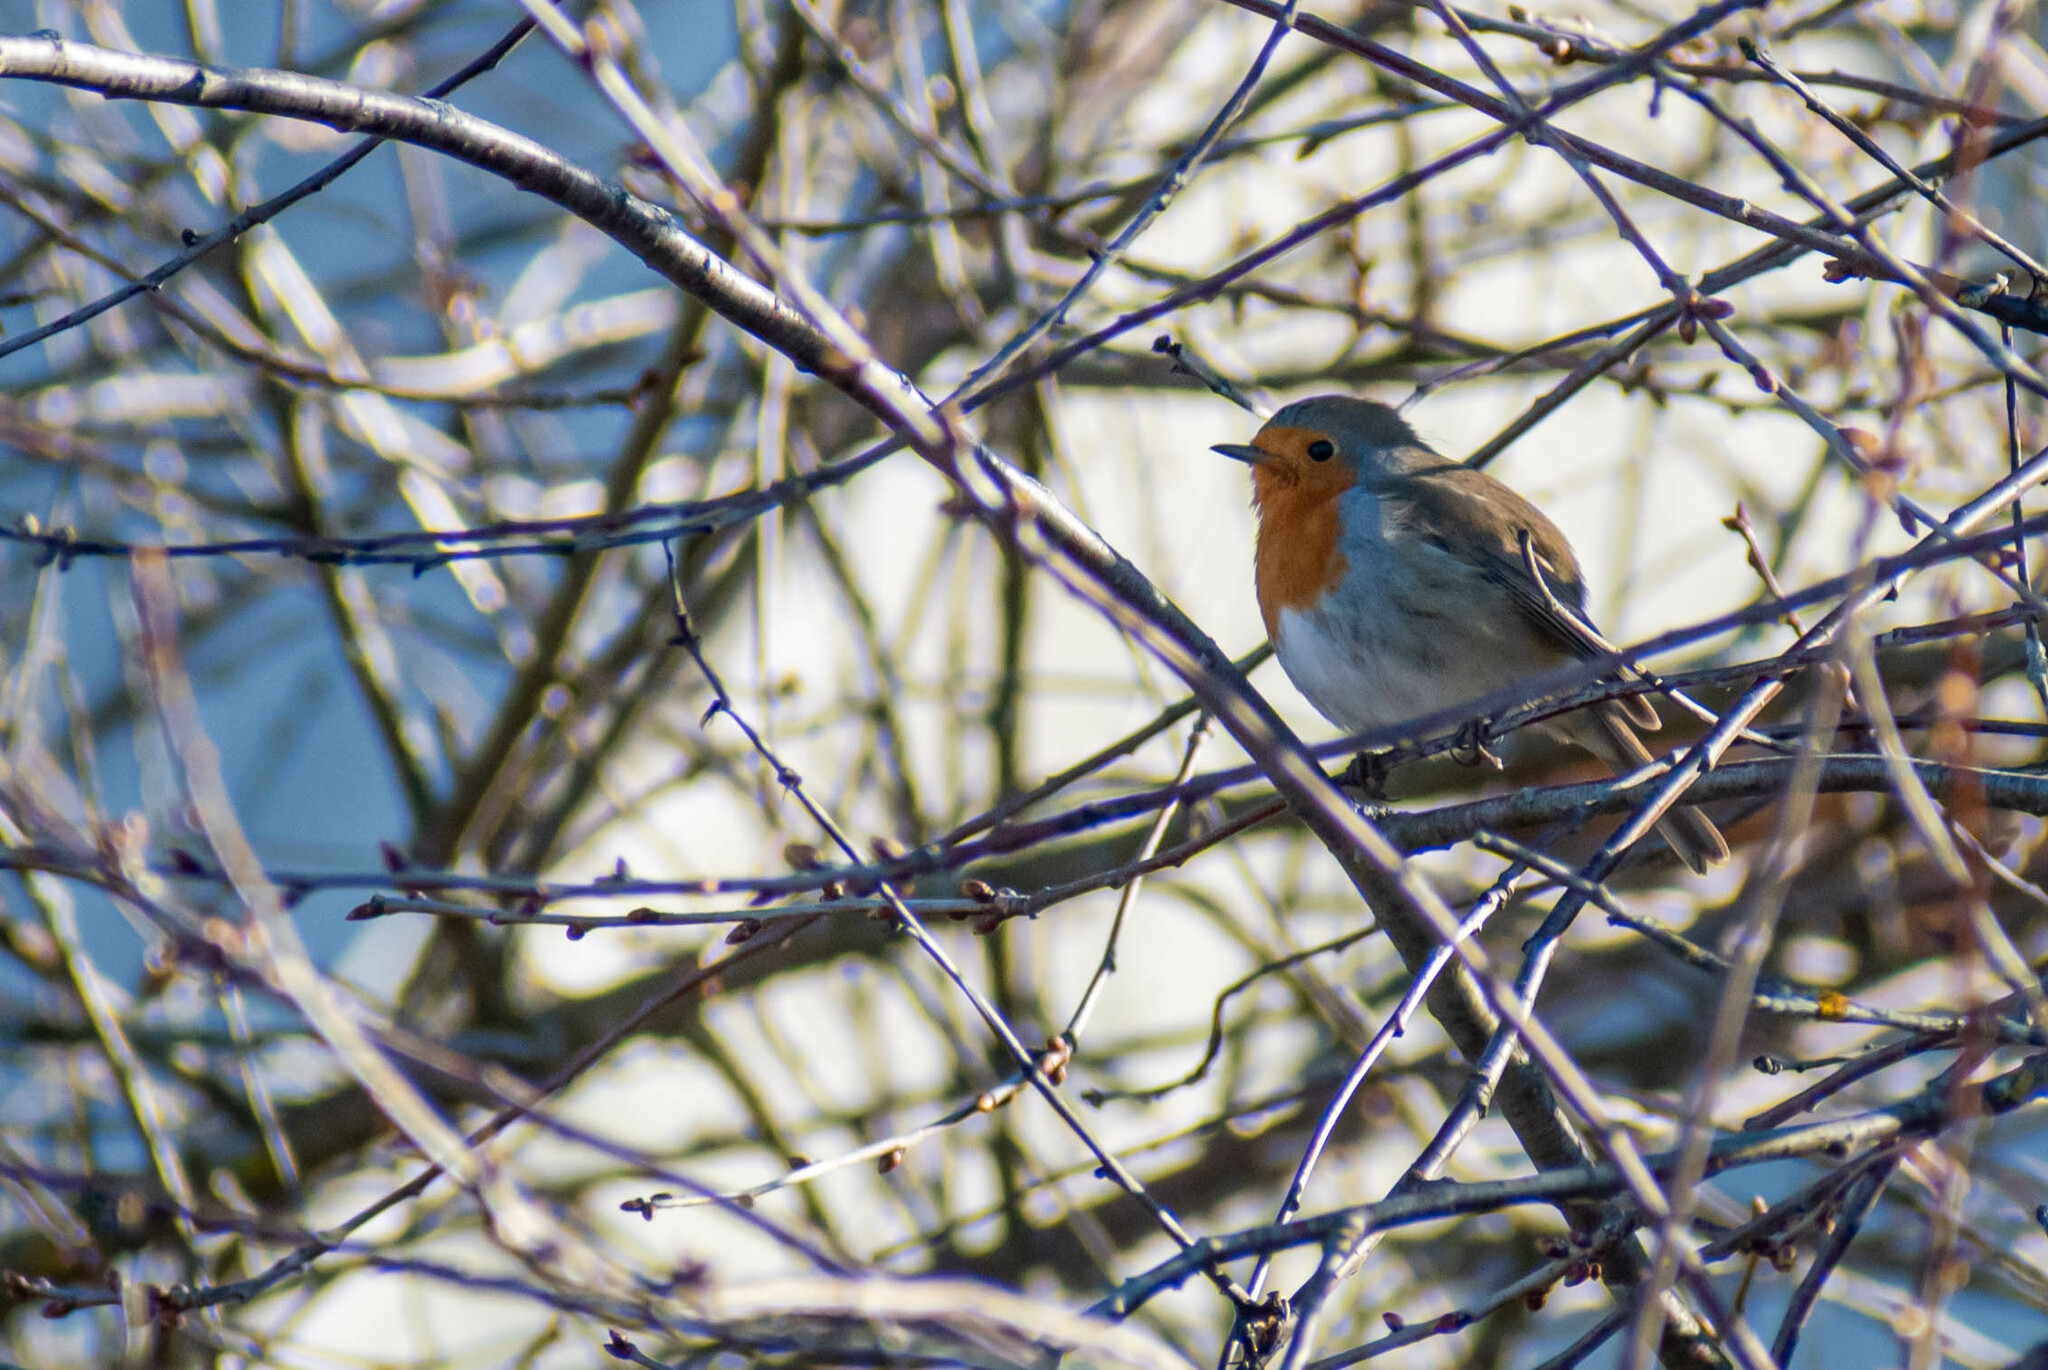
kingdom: Animalia
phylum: Chordata
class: Aves
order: Passeriformes
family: Muscicapidae
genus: Erithacus
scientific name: Erithacus rubecula
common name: European robin
